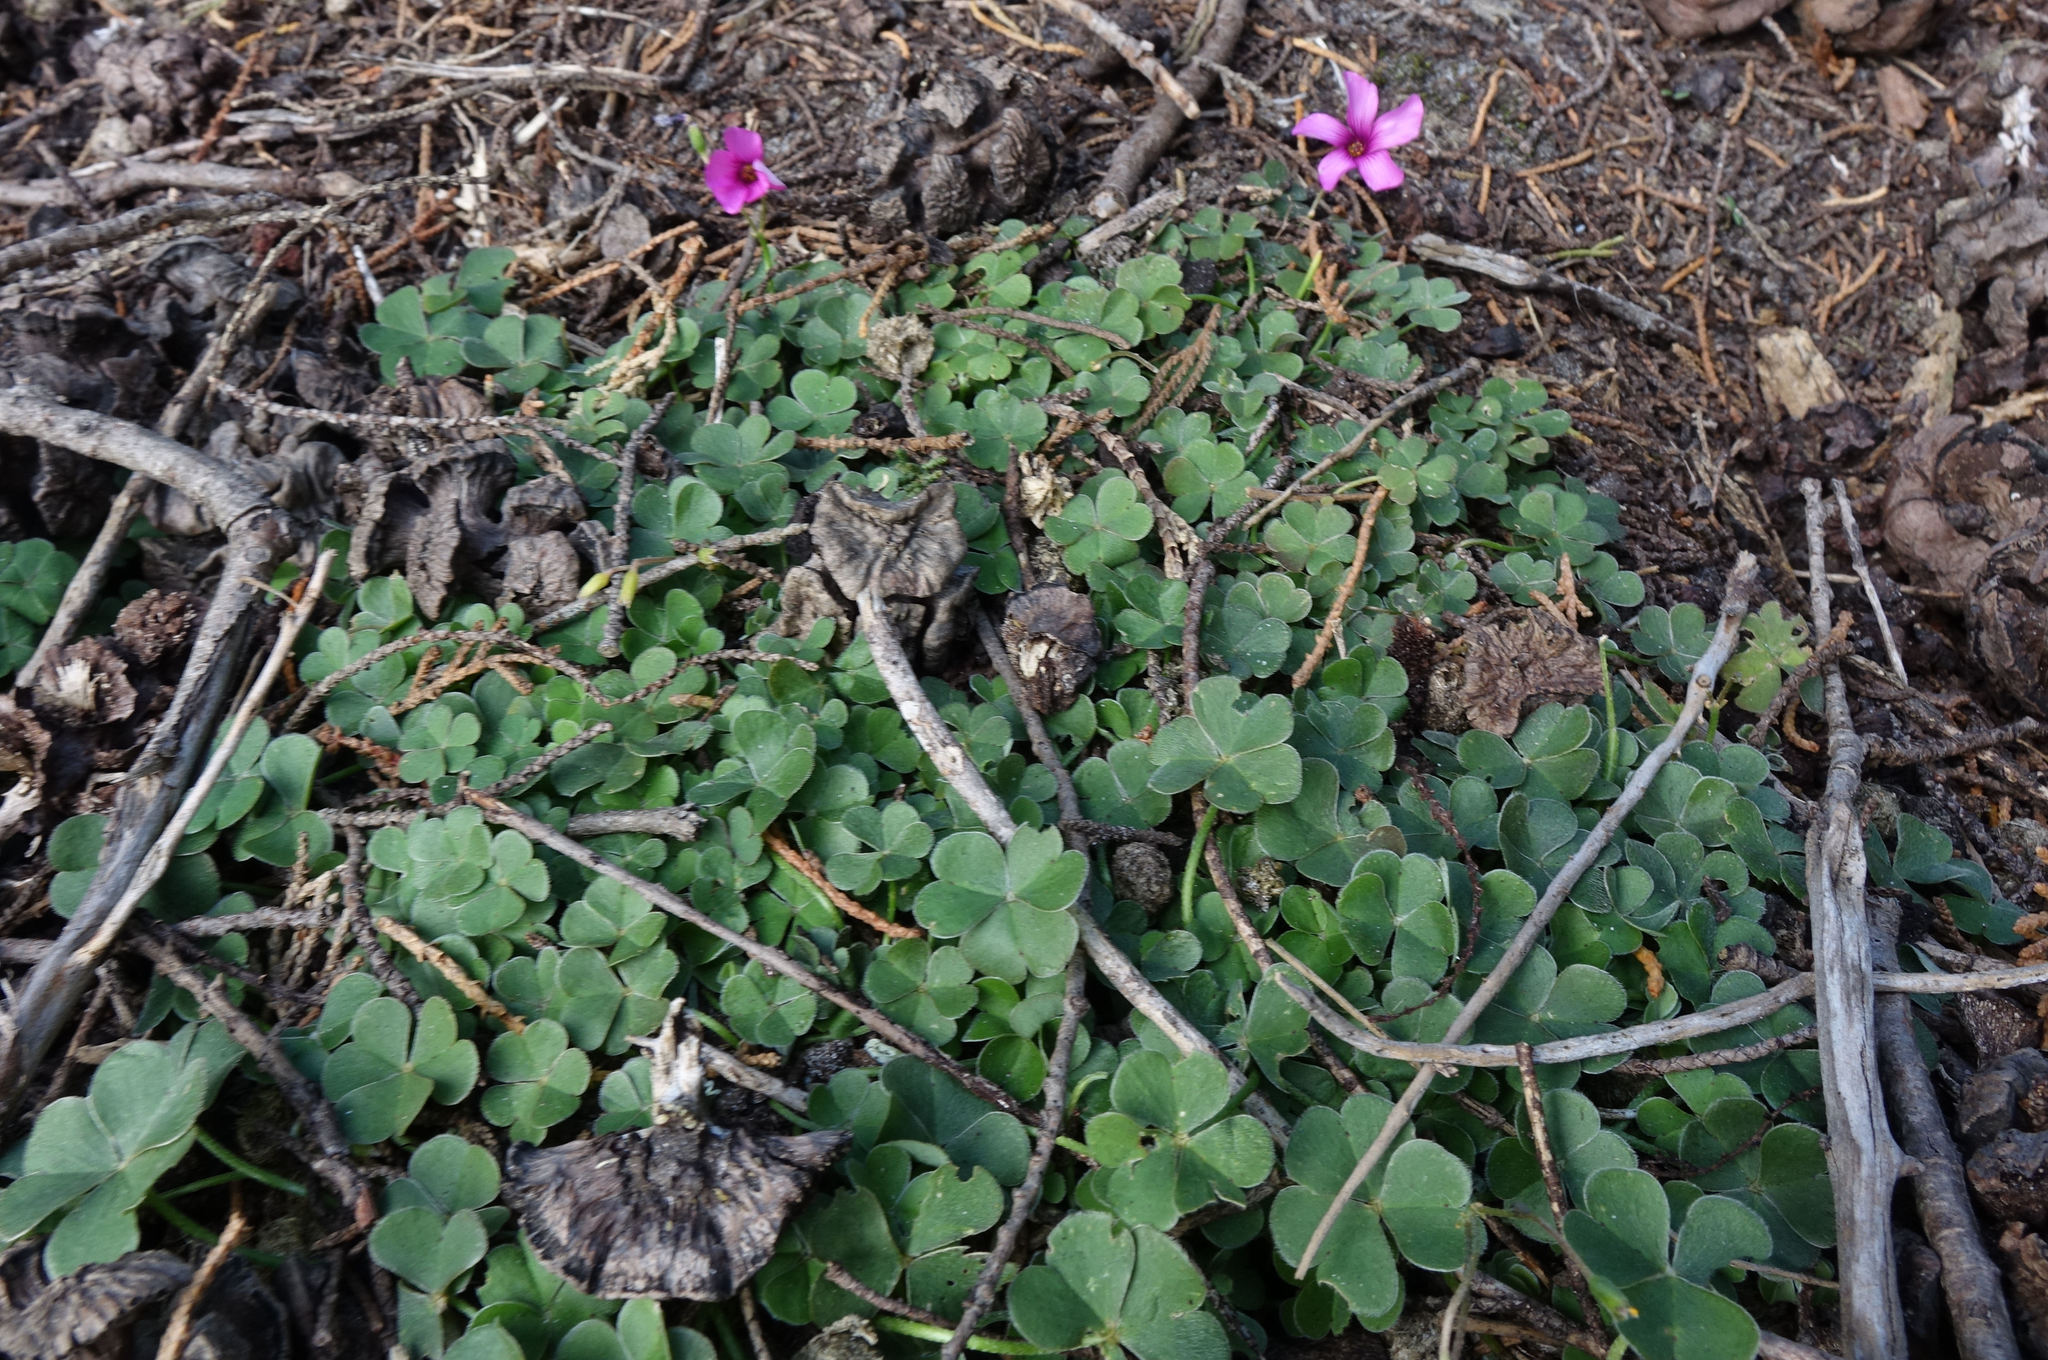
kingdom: Plantae
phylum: Tracheophyta
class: Magnoliopsida
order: Oxalidales
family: Oxalidaceae
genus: Oxalis
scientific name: Oxalis articulata
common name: Pink-sorrel
